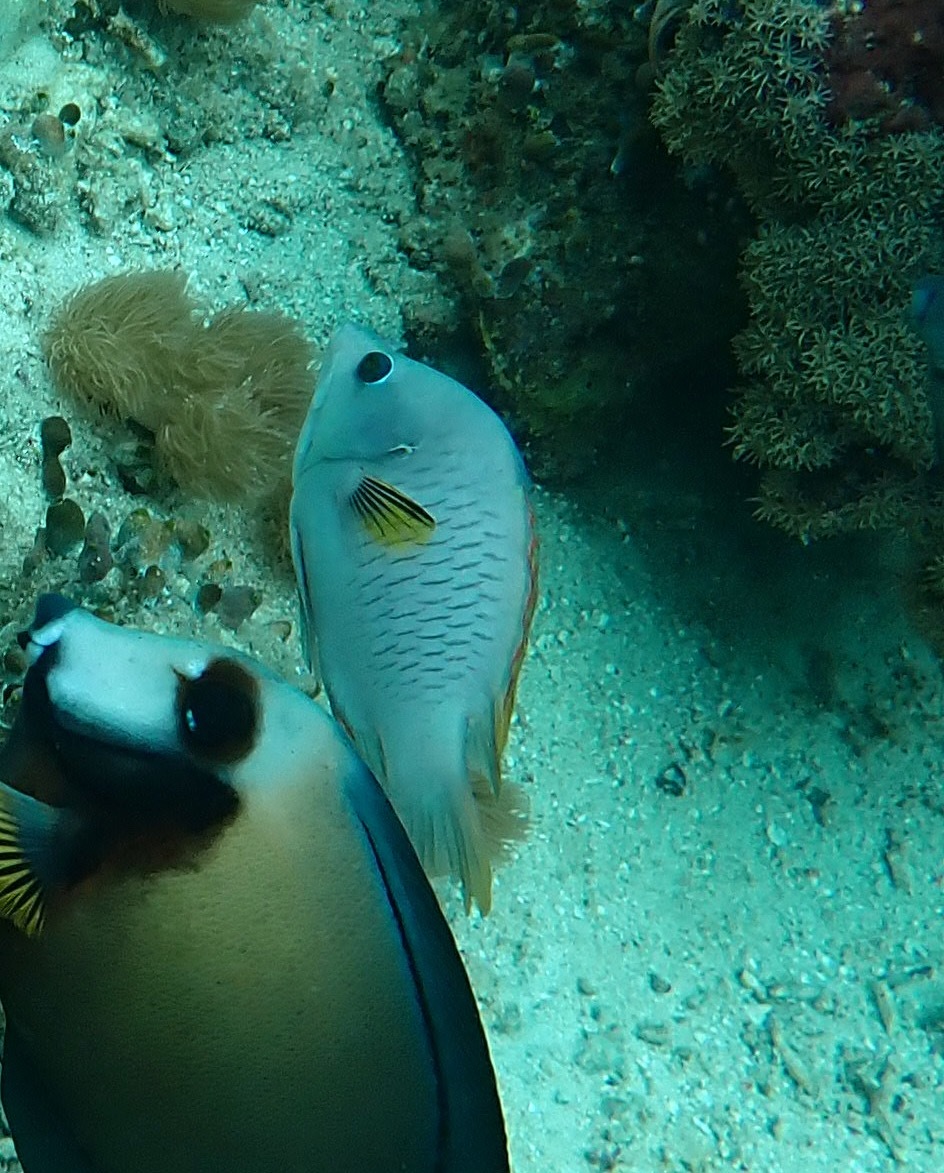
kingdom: Animalia
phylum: Chordata
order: Perciformes
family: Labridae
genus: Epibulus
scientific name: Epibulus insidiator
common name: Slingjaw wrasse
